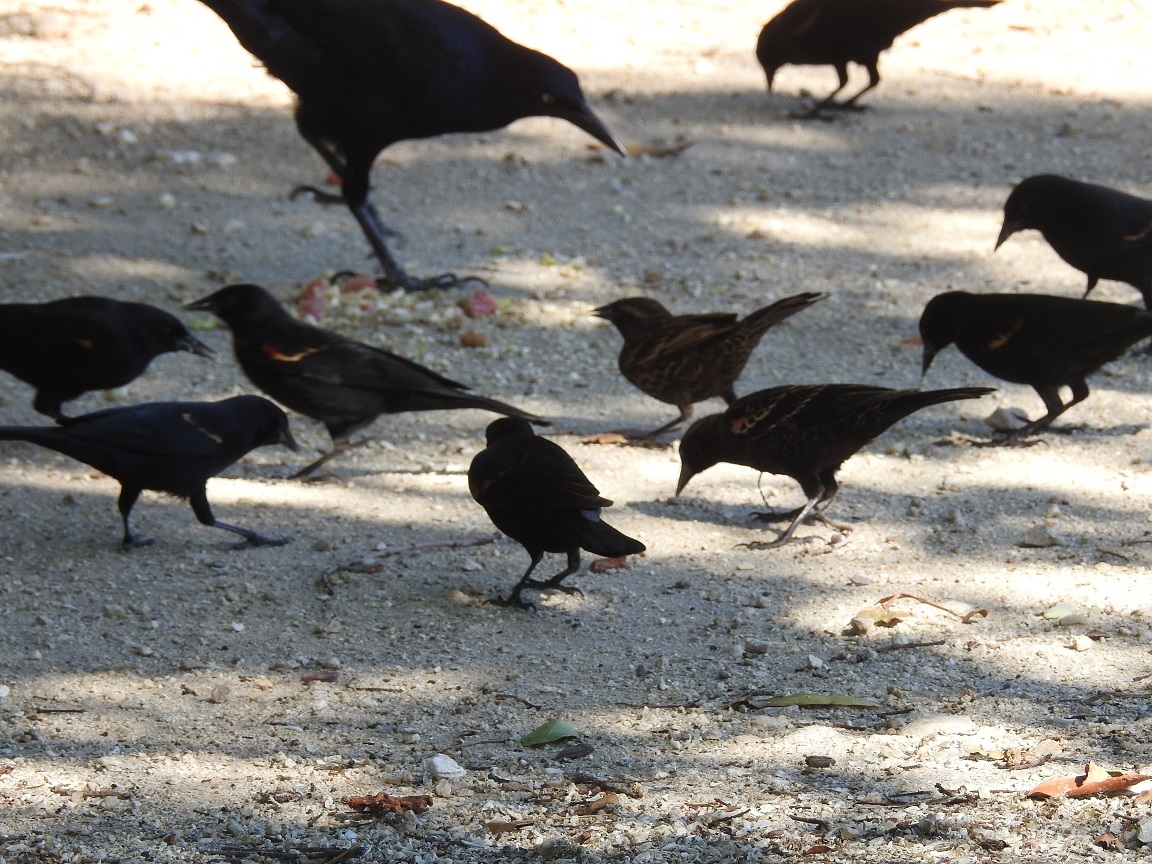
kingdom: Animalia
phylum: Chordata
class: Aves
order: Passeriformes
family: Icteridae
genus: Agelaius
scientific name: Agelaius phoeniceus
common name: Red-winged blackbird
